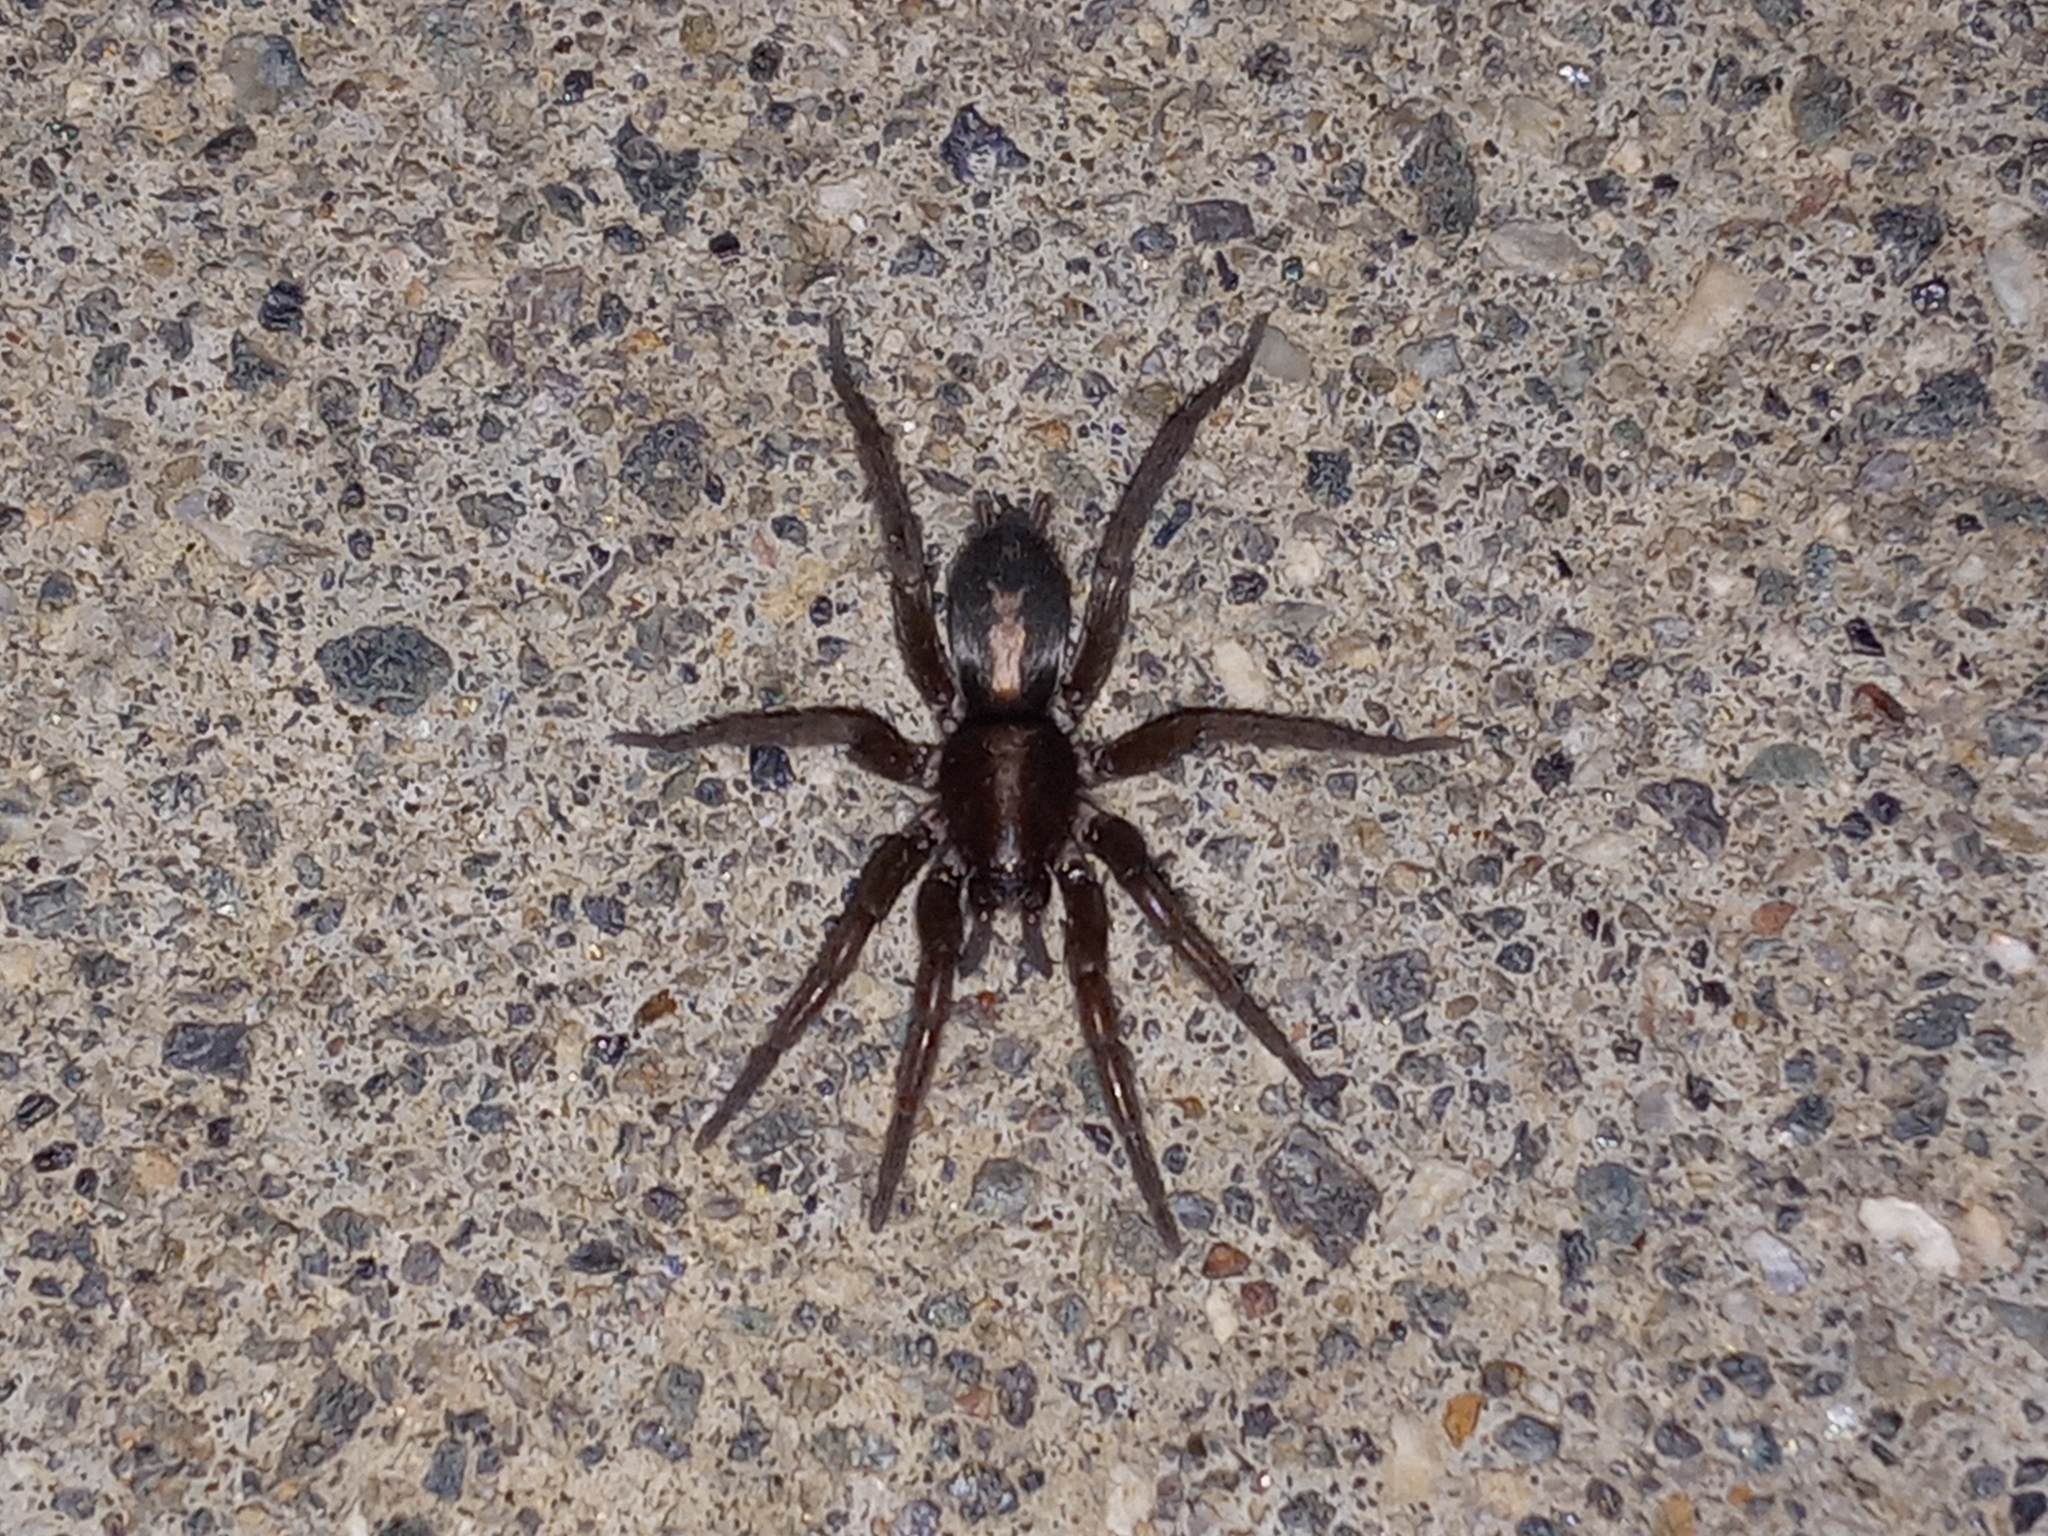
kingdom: Animalia
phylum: Arthropoda
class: Arachnida
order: Araneae
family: Gnaphosidae
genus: Herpyllus
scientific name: Herpyllus propinquus
